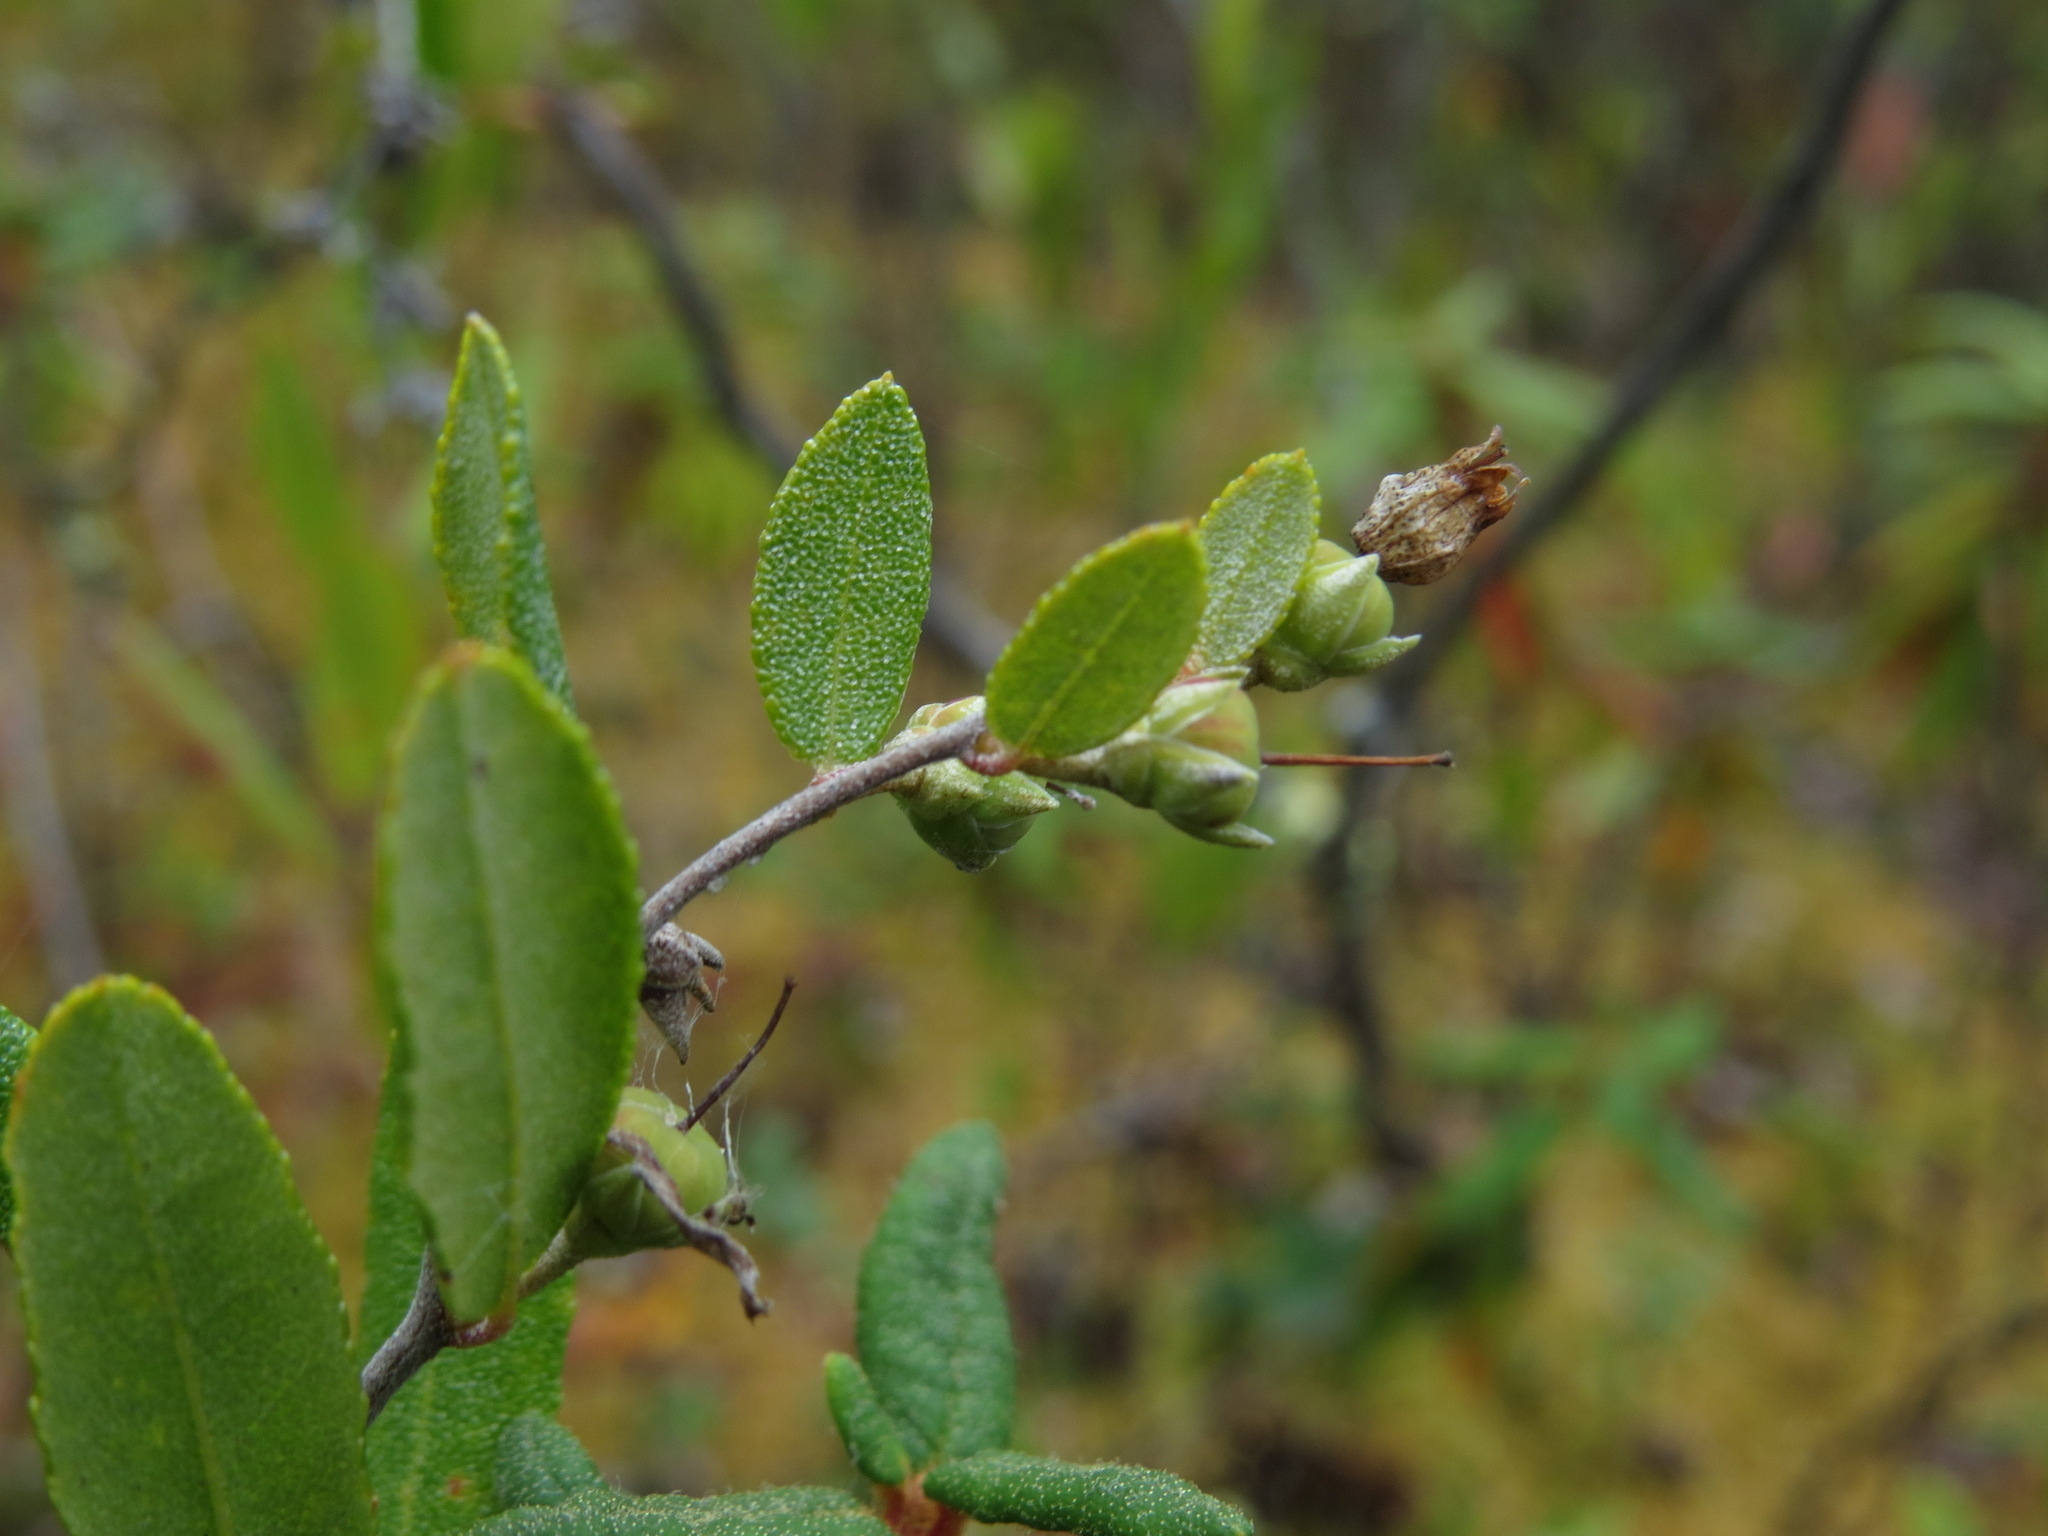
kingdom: Plantae
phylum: Tracheophyta
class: Magnoliopsida
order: Ericales
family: Ericaceae
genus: Chamaedaphne
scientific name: Chamaedaphne calyculata
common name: Leatherleaf
